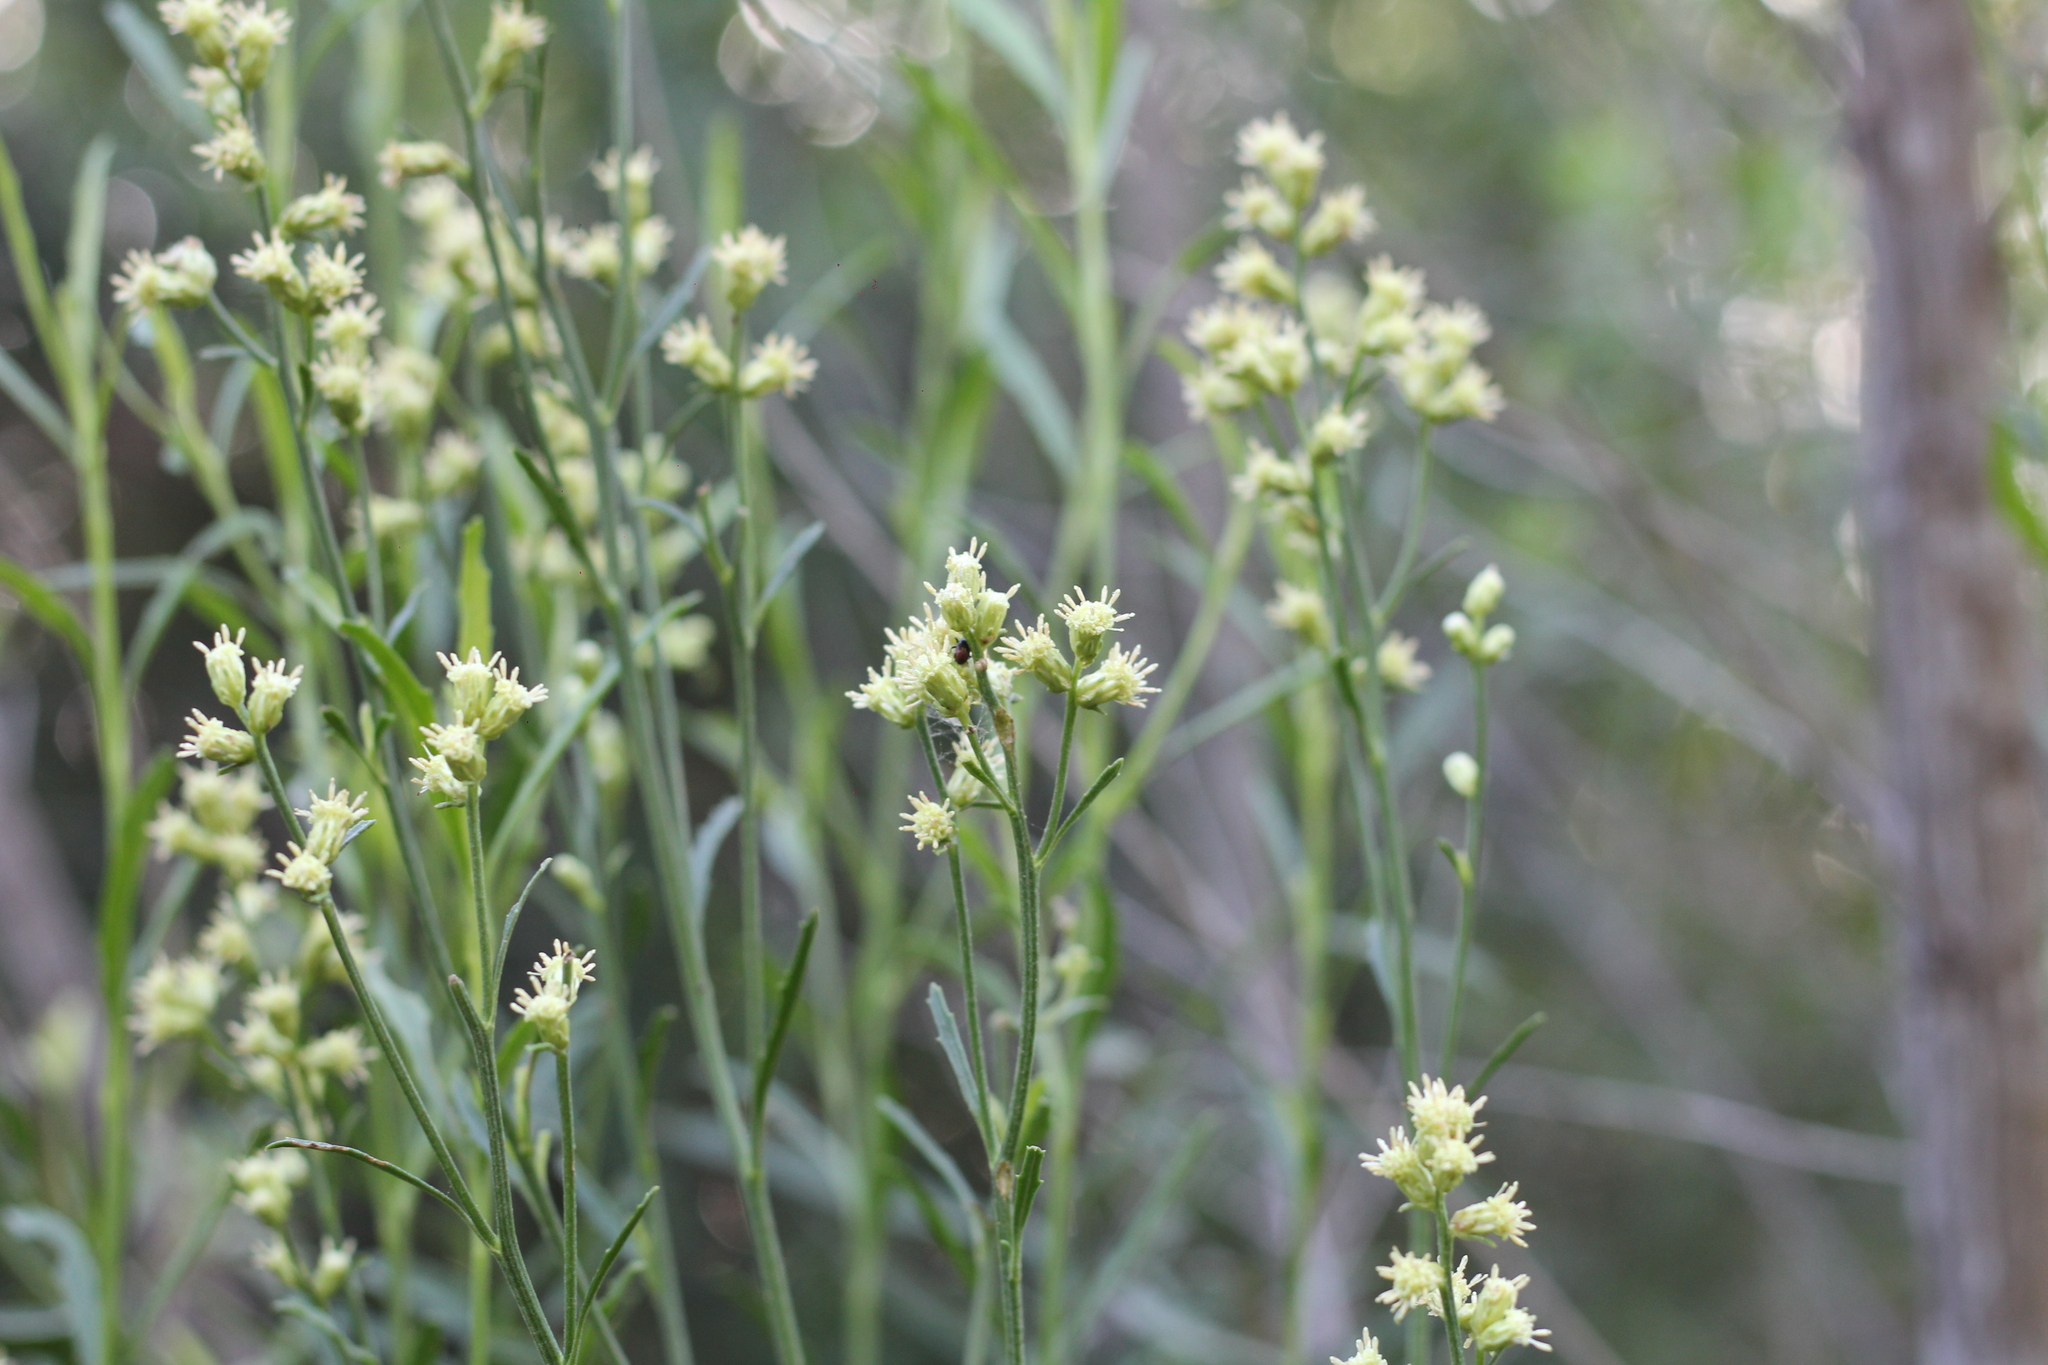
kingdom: Plantae
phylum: Tracheophyta
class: Magnoliopsida
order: Asterales
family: Asteraceae
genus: Baccharis
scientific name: Baccharis spicata
